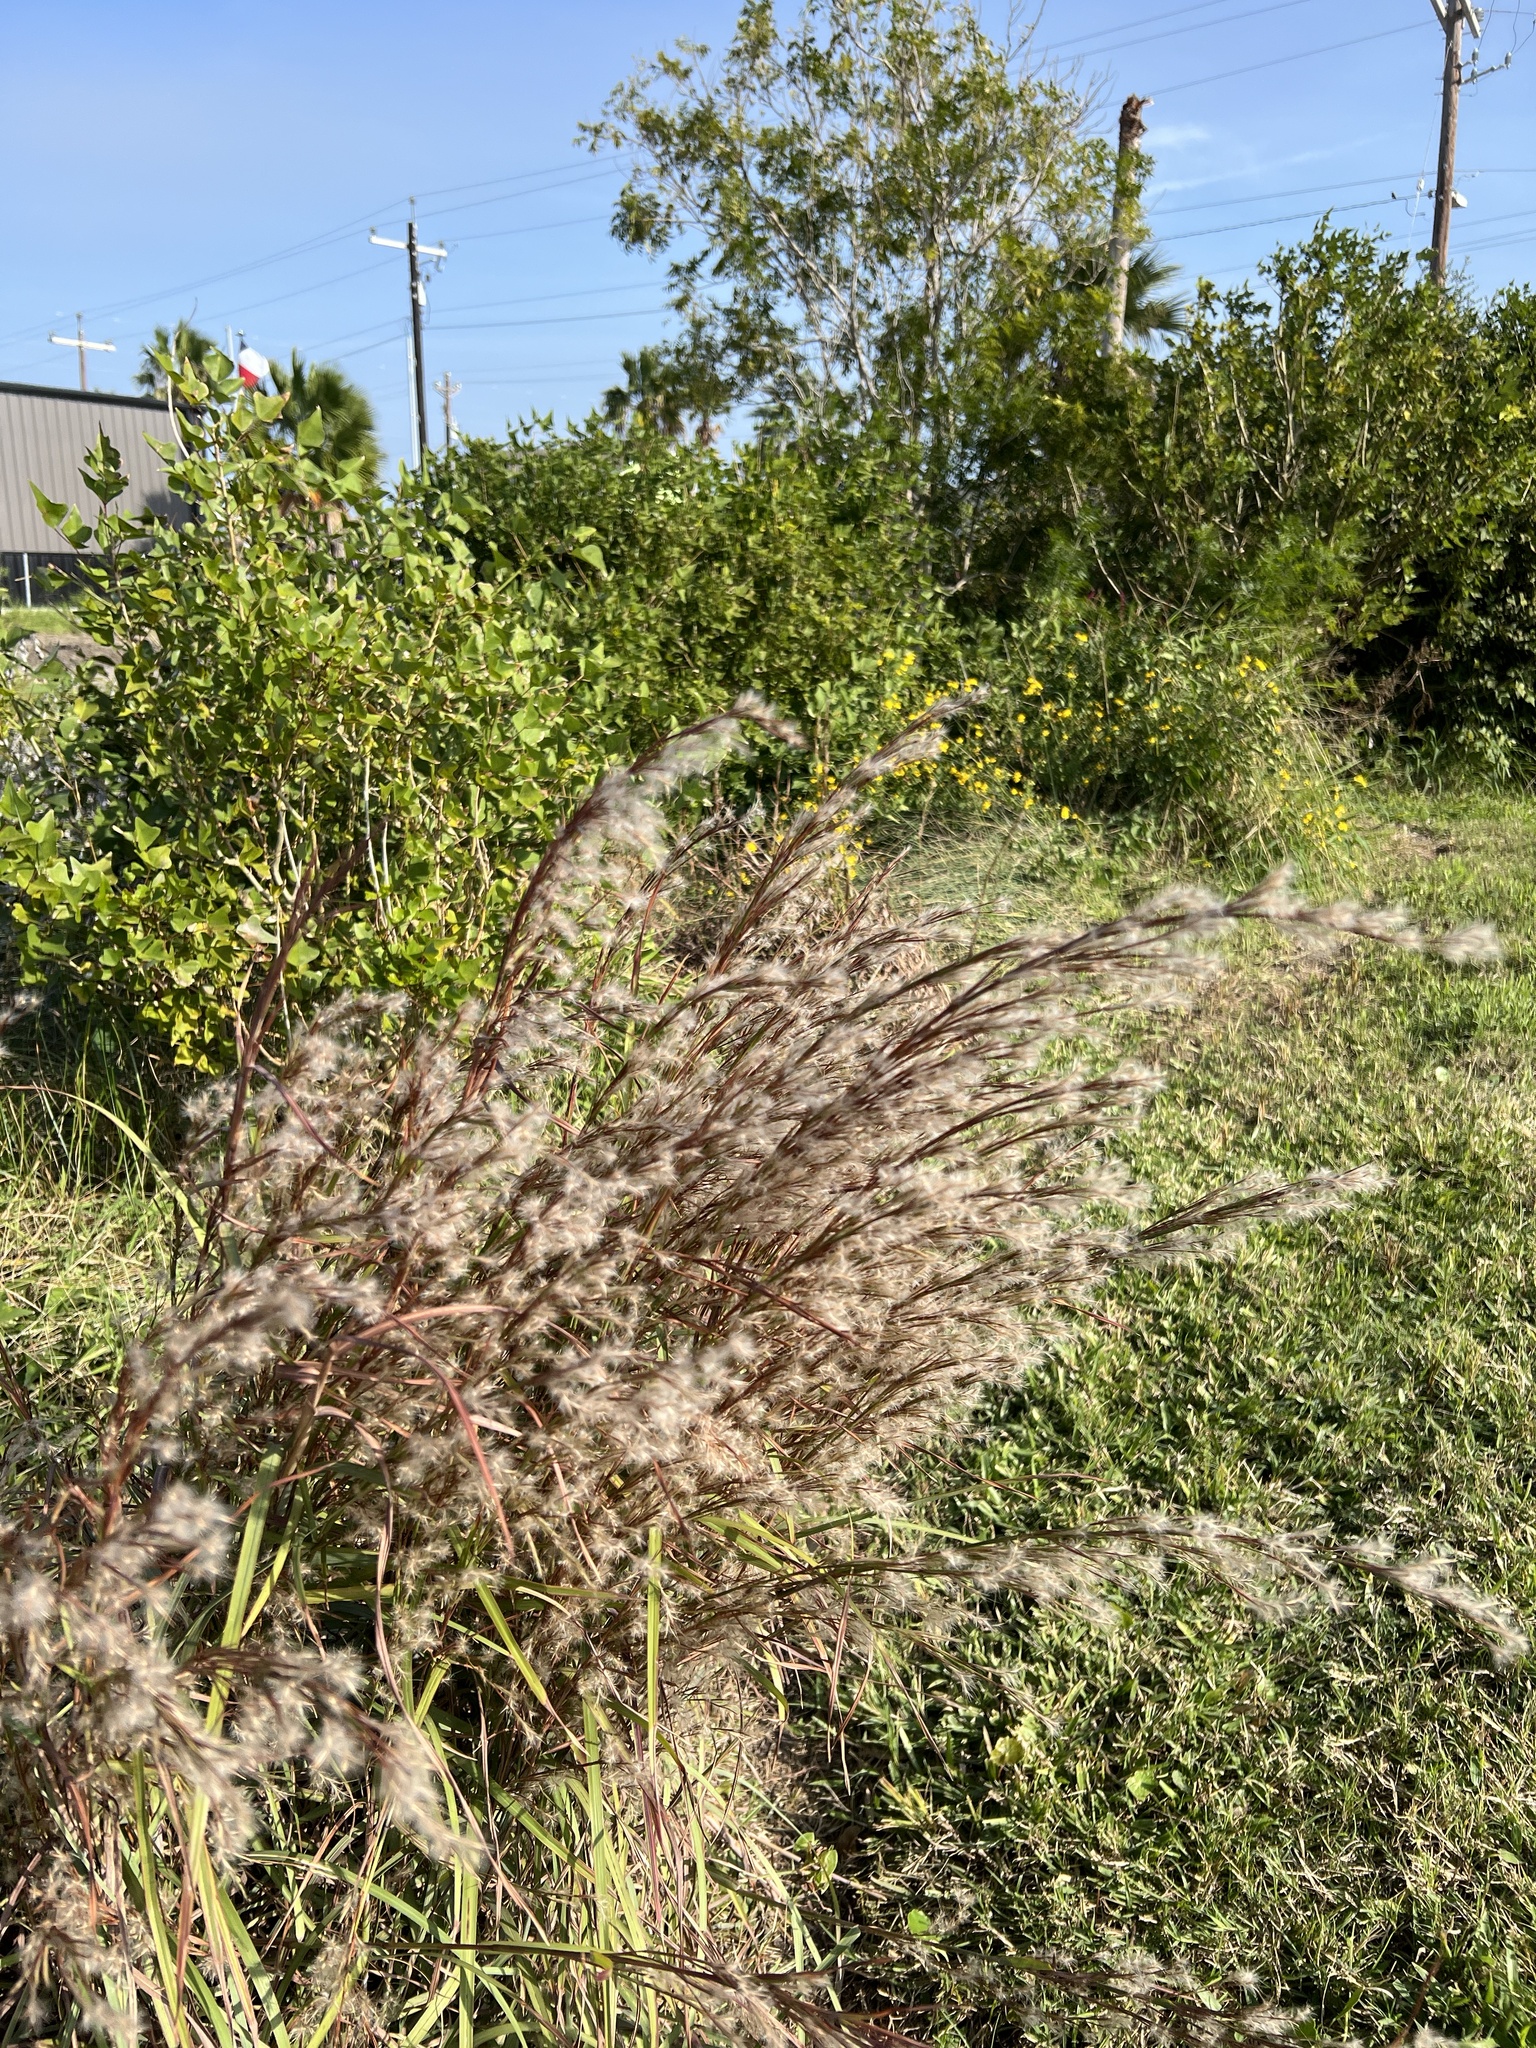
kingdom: Plantae
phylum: Tracheophyta
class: Liliopsida
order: Poales
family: Poaceae
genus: Schizachyrium
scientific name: Schizachyrium scoparium
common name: Little bluestem
